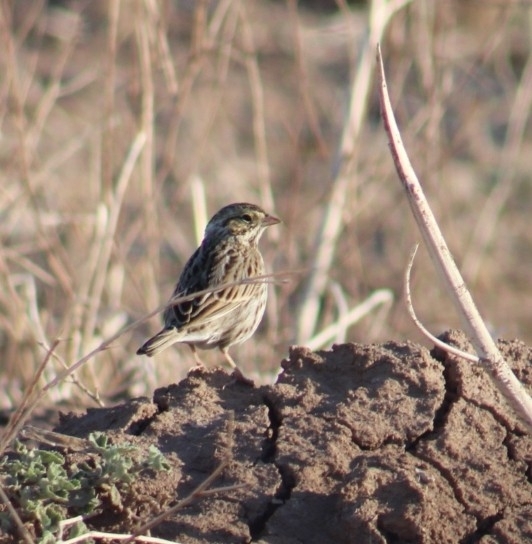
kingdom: Animalia
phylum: Chordata
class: Aves
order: Passeriformes
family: Passerellidae
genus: Passerculus
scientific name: Passerculus sandwichensis
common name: Savannah sparrow
